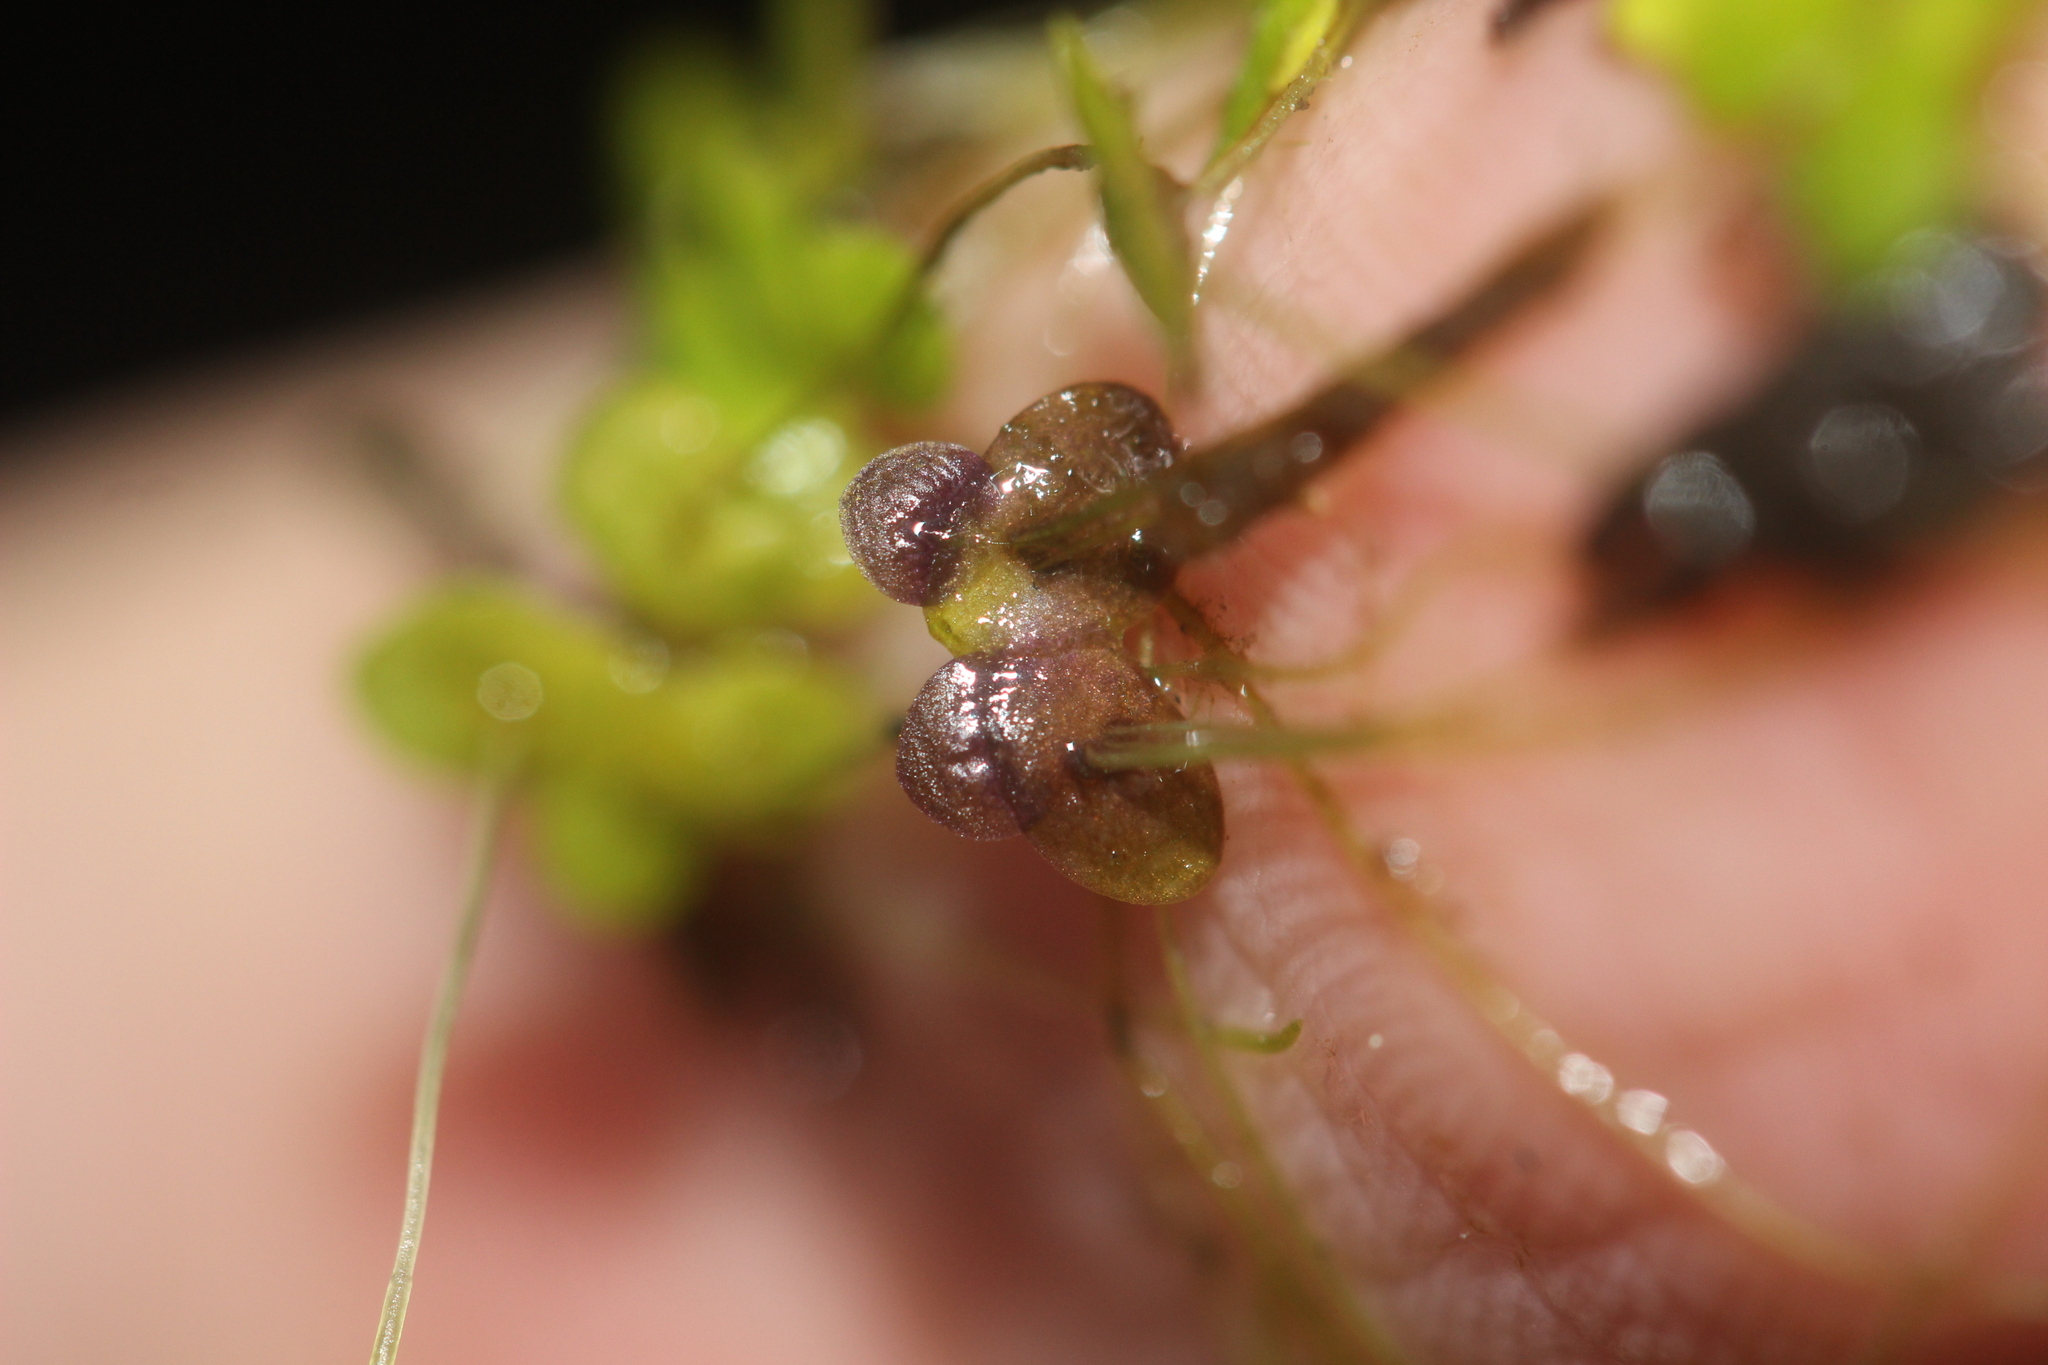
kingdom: Plantae
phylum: Tracheophyta
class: Liliopsida
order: Alismatales
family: Araceae
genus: Spirodela
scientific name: Spirodela punctata
